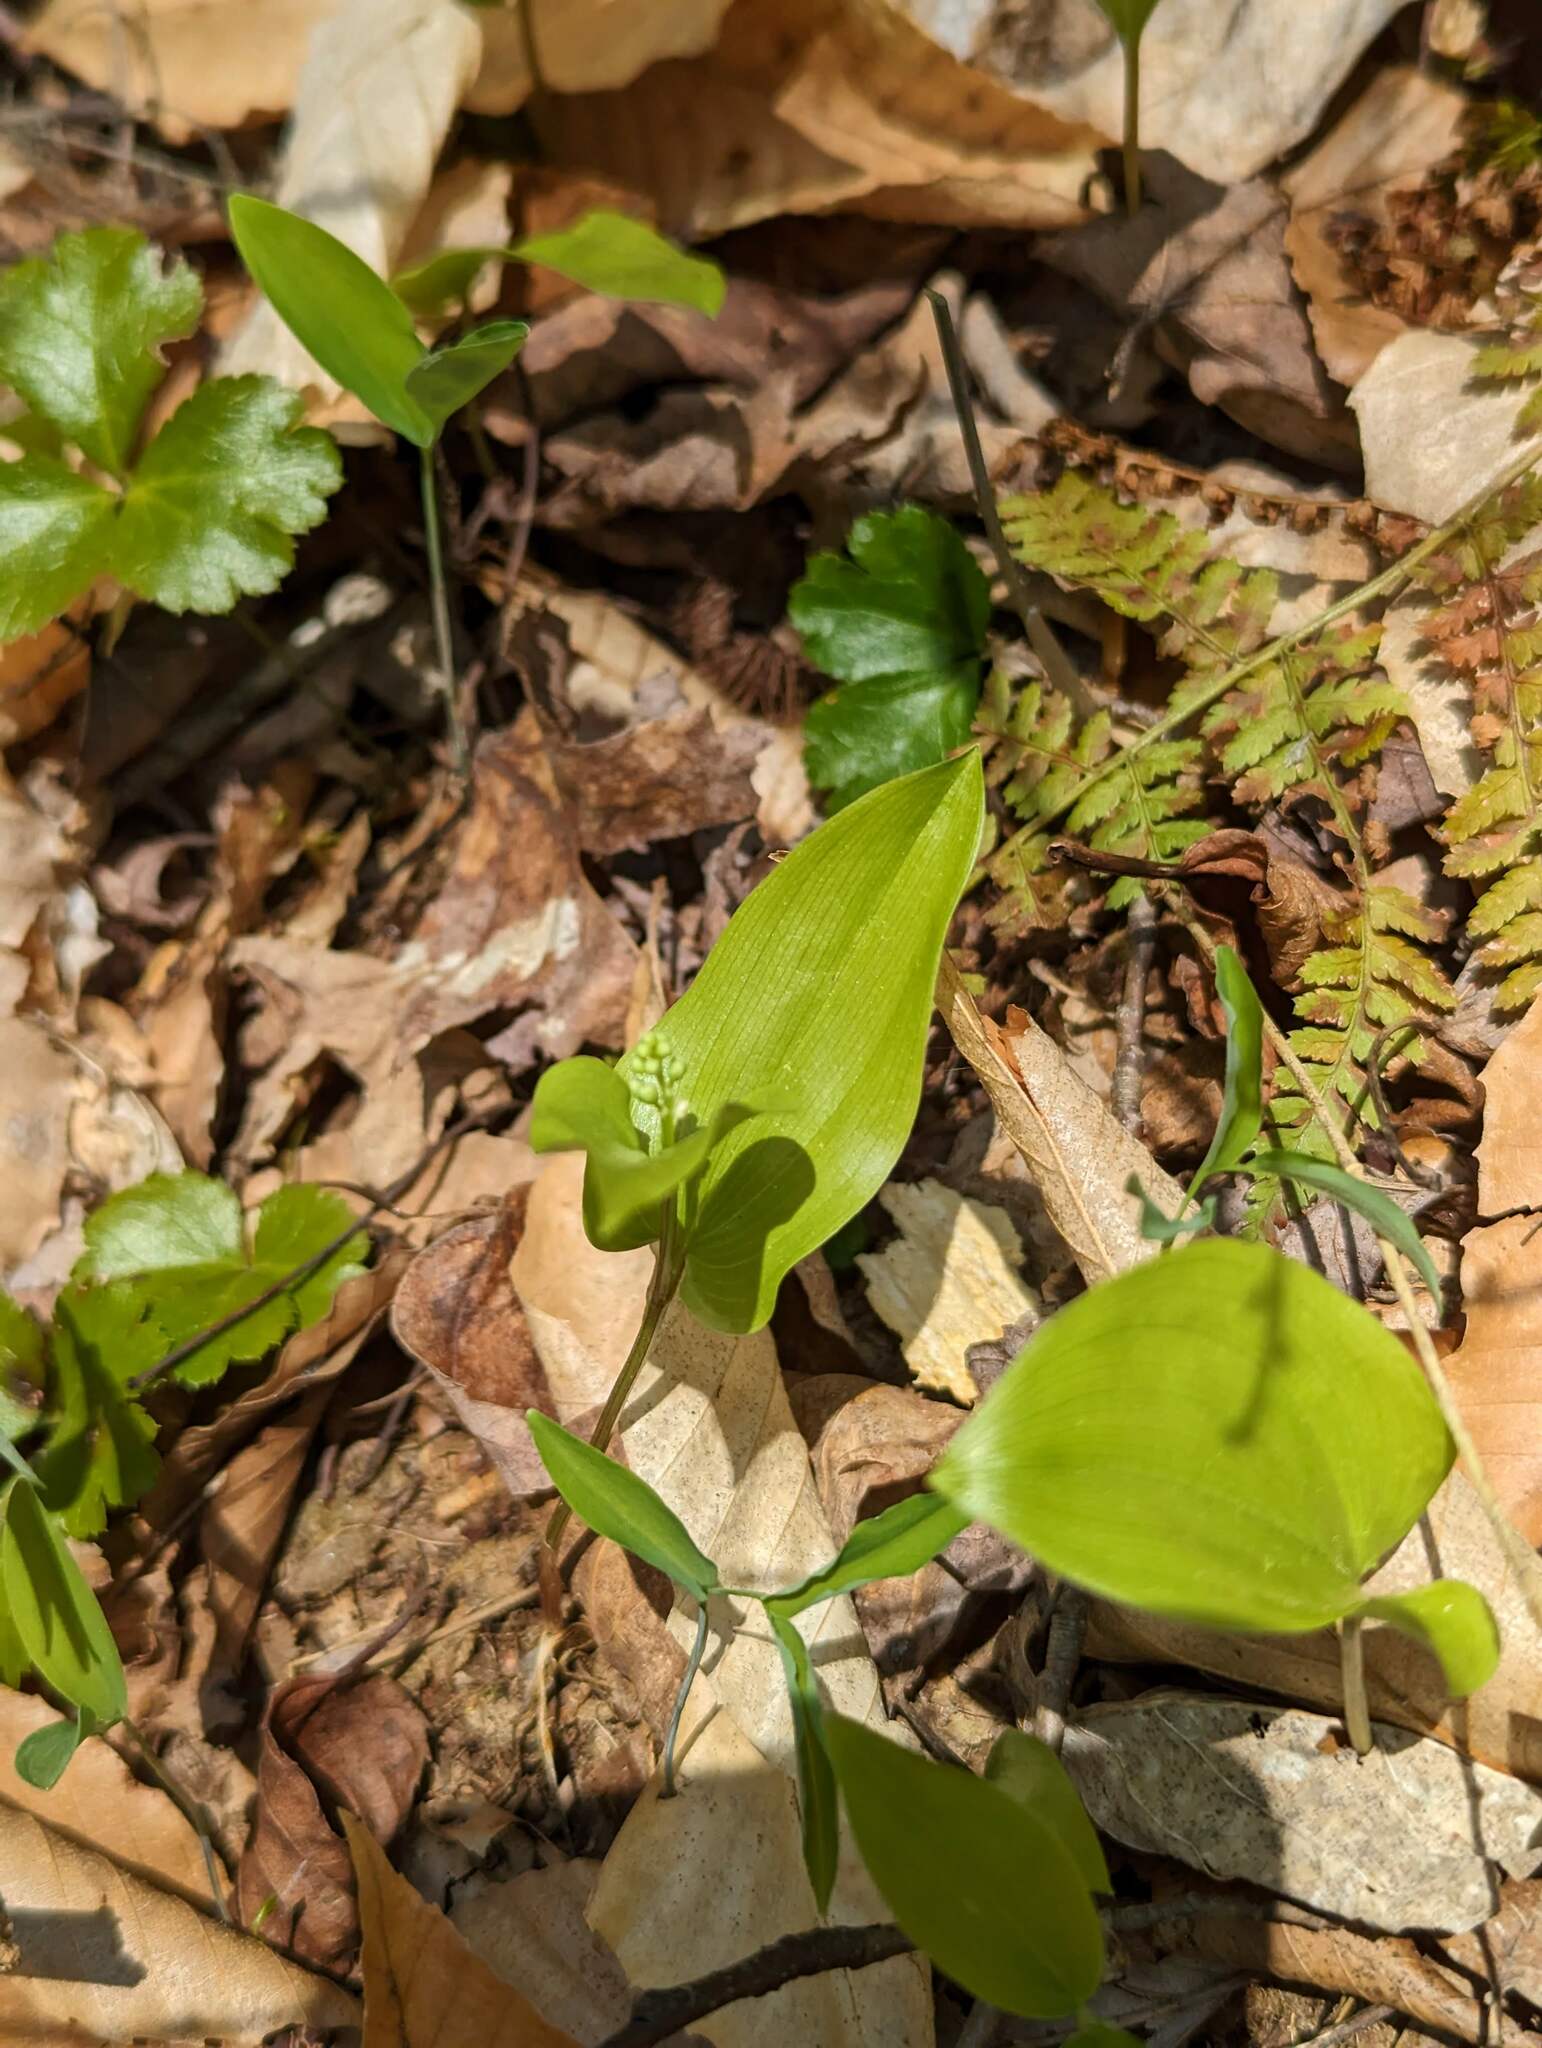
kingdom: Plantae
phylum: Tracheophyta
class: Liliopsida
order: Asparagales
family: Asparagaceae
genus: Maianthemum
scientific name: Maianthemum canadense
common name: False lily-of-the-valley
